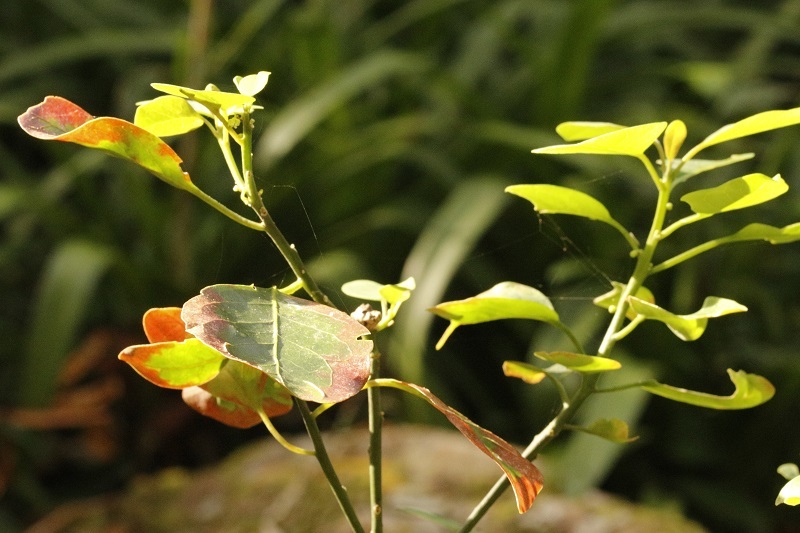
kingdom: Plantae
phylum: Tracheophyta
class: Magnoliopsida
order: Malpighiales
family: Peraceae
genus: Clutia
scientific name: Clutia pulchella
